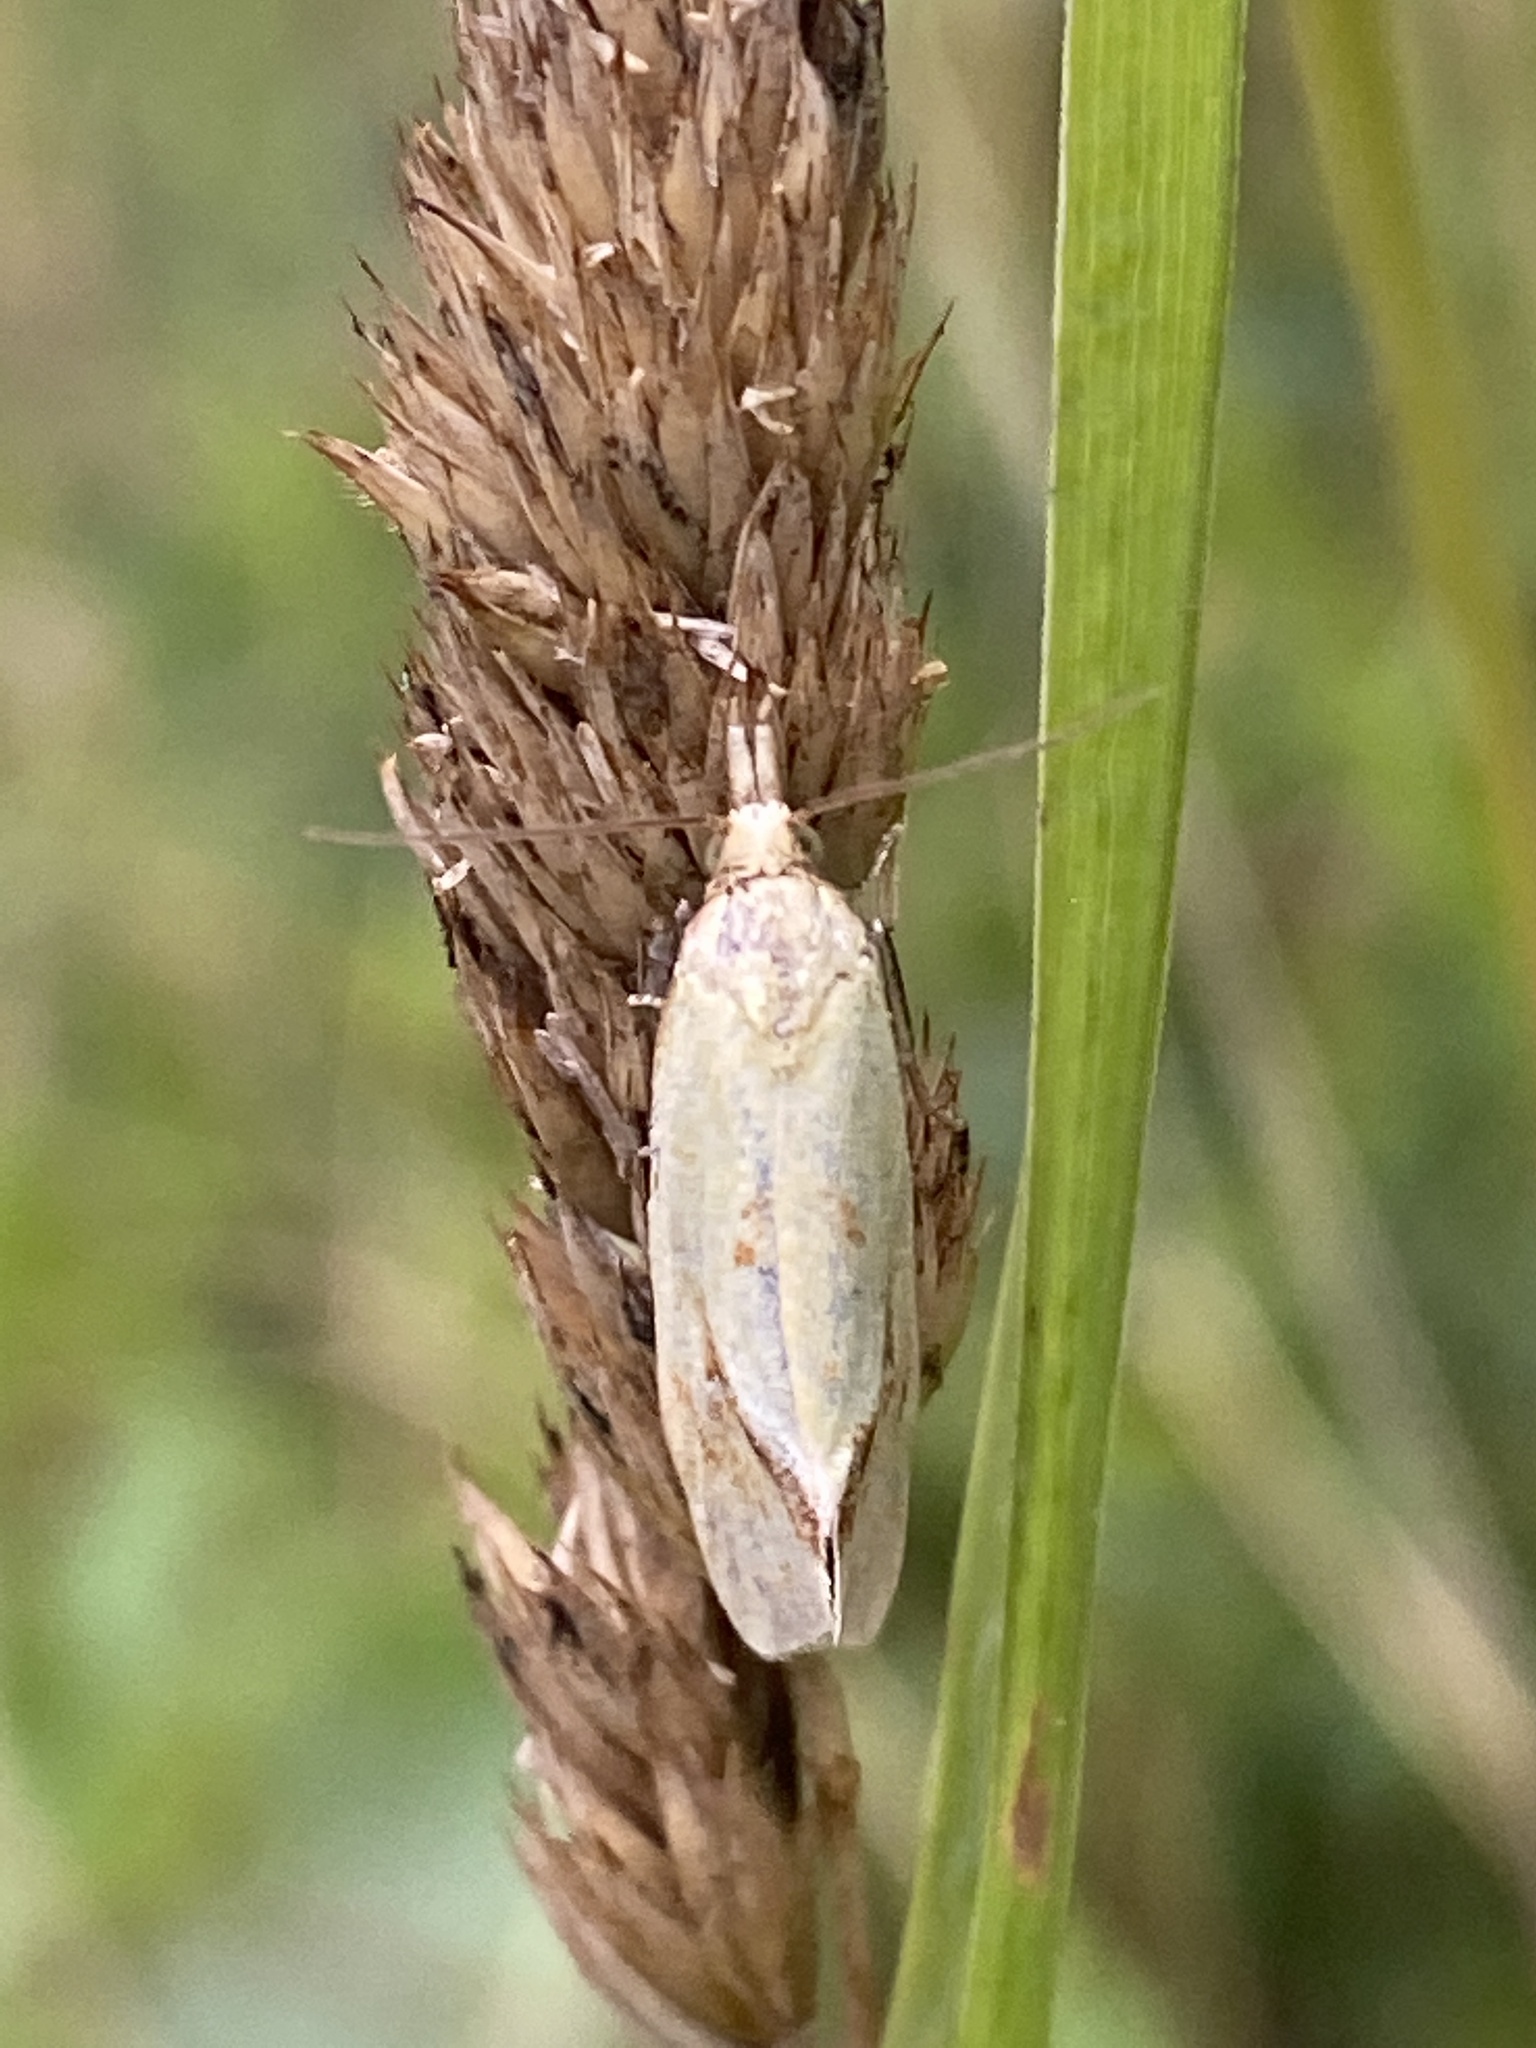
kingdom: Animalia
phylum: Arthropoda
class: Insecta
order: Lepidoptera
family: Tortricidae
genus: Agapeta
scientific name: Agapeta hamana
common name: Common yellow conch
